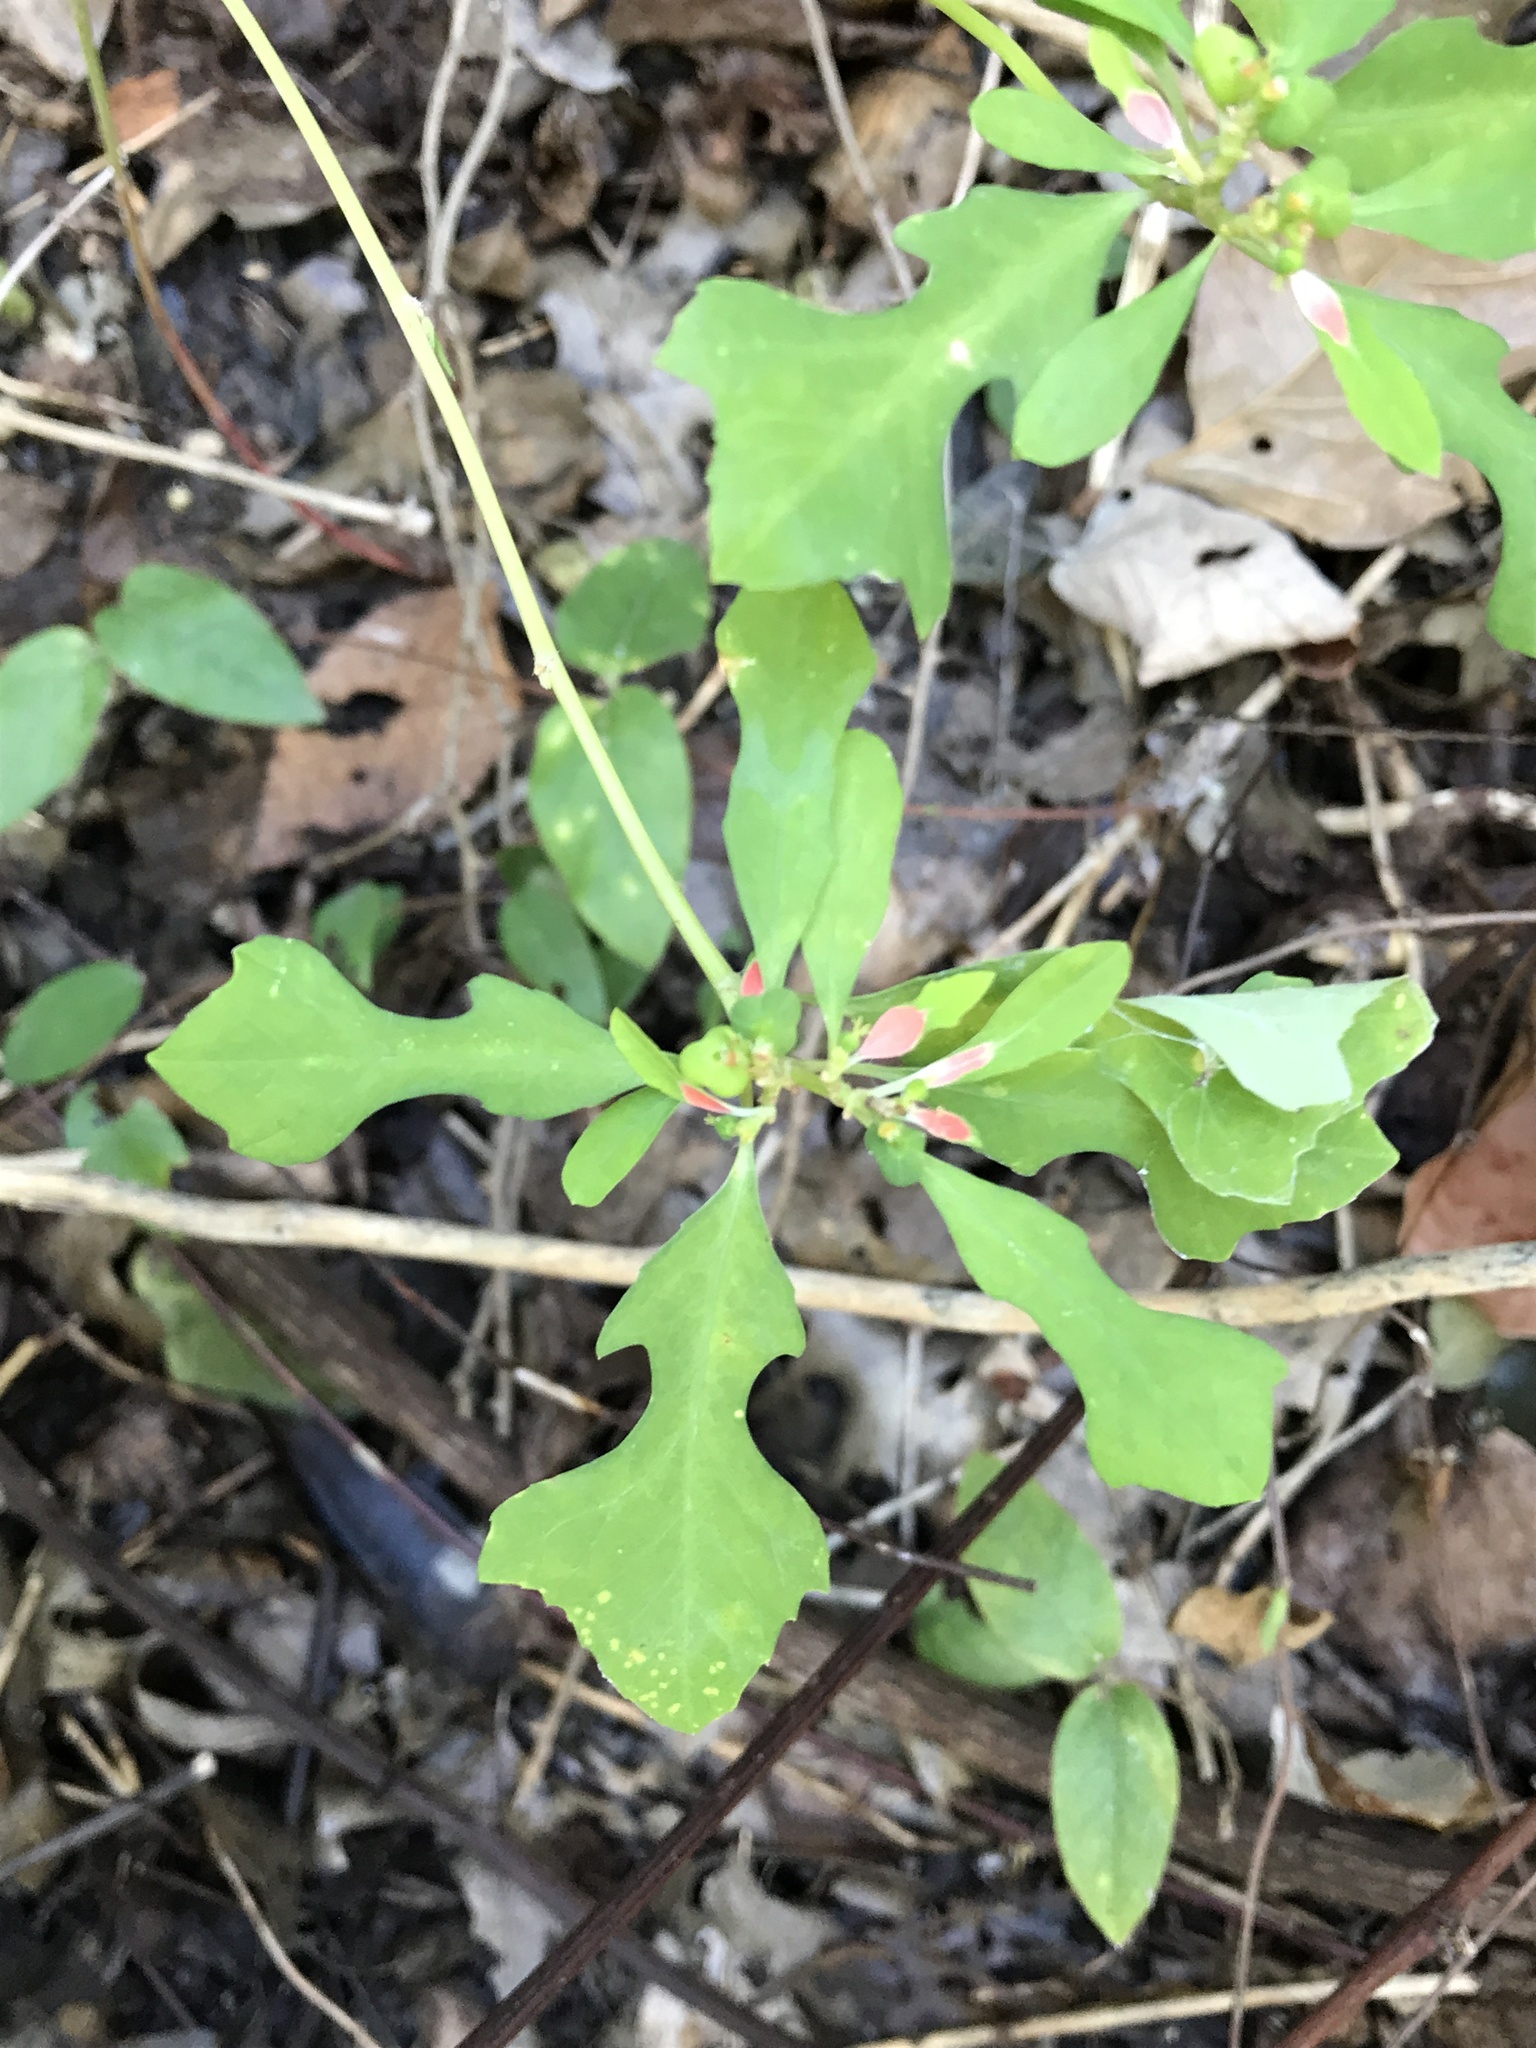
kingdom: Plantae
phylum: Tracheophyta
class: Magnoliopsida
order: Malpighiales
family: Euphorbiaceae
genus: Euphorbia
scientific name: Euphorbia heterophylla
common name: Mexican fireplant
